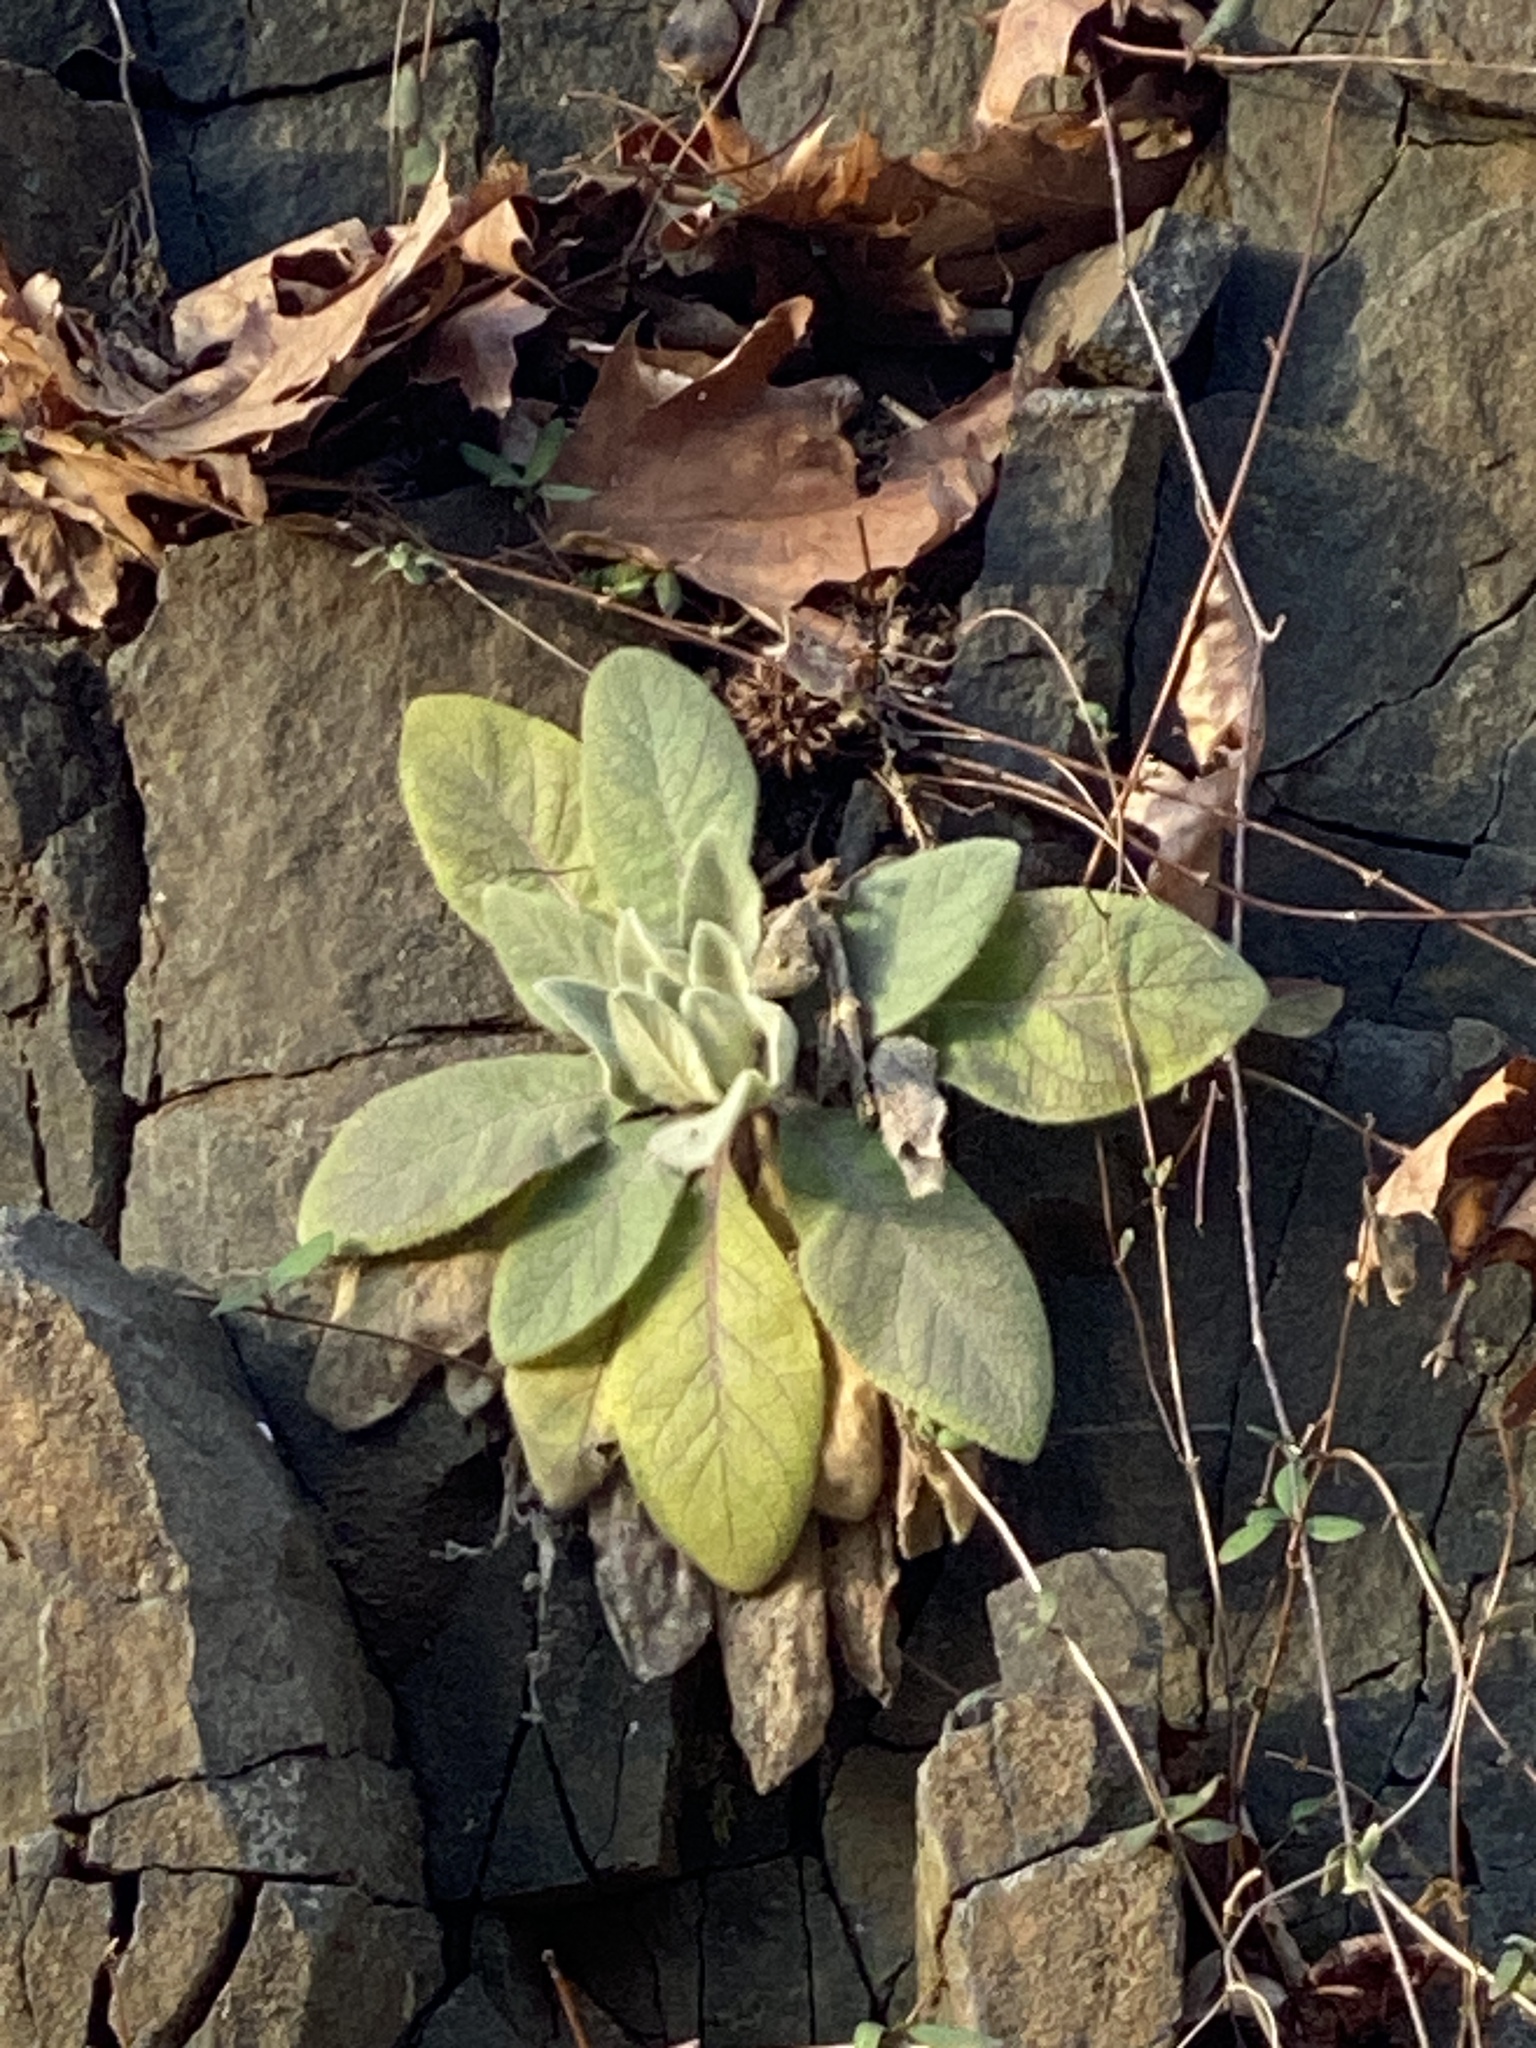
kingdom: Plantae
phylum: Tracheophyta
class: Magnoliopsida
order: Lamiales
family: Scrophulariaceae
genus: Verbascum
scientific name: Verbascum thapsus
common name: Common mullein
